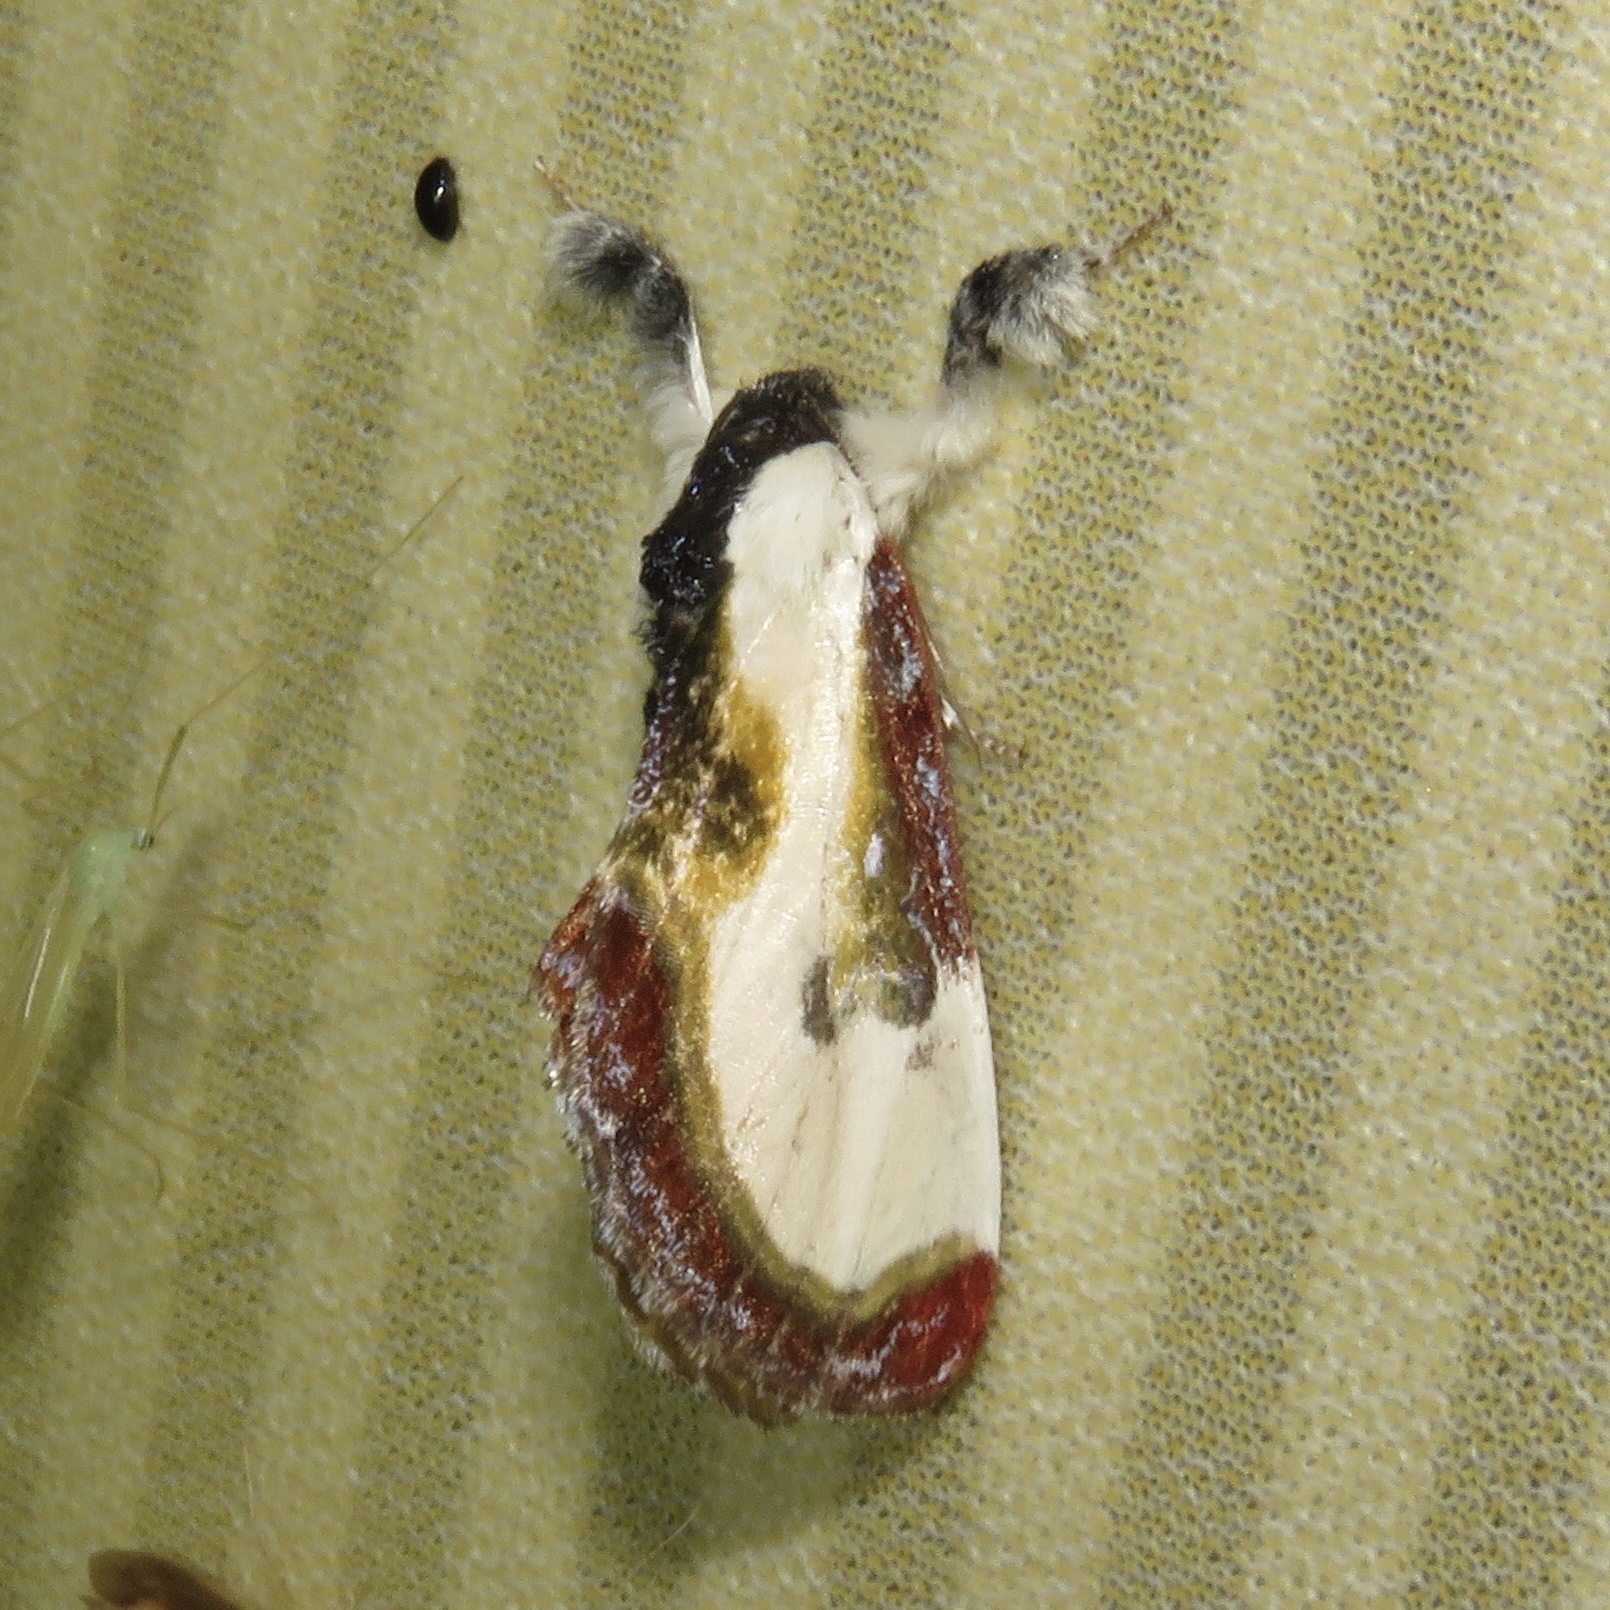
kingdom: Animalia
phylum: Arthropoda
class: Insecta
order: Lepidoptera
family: Noctuidae
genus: Eudryas
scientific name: Eudryas grata
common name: Beautiful wood-nymph
